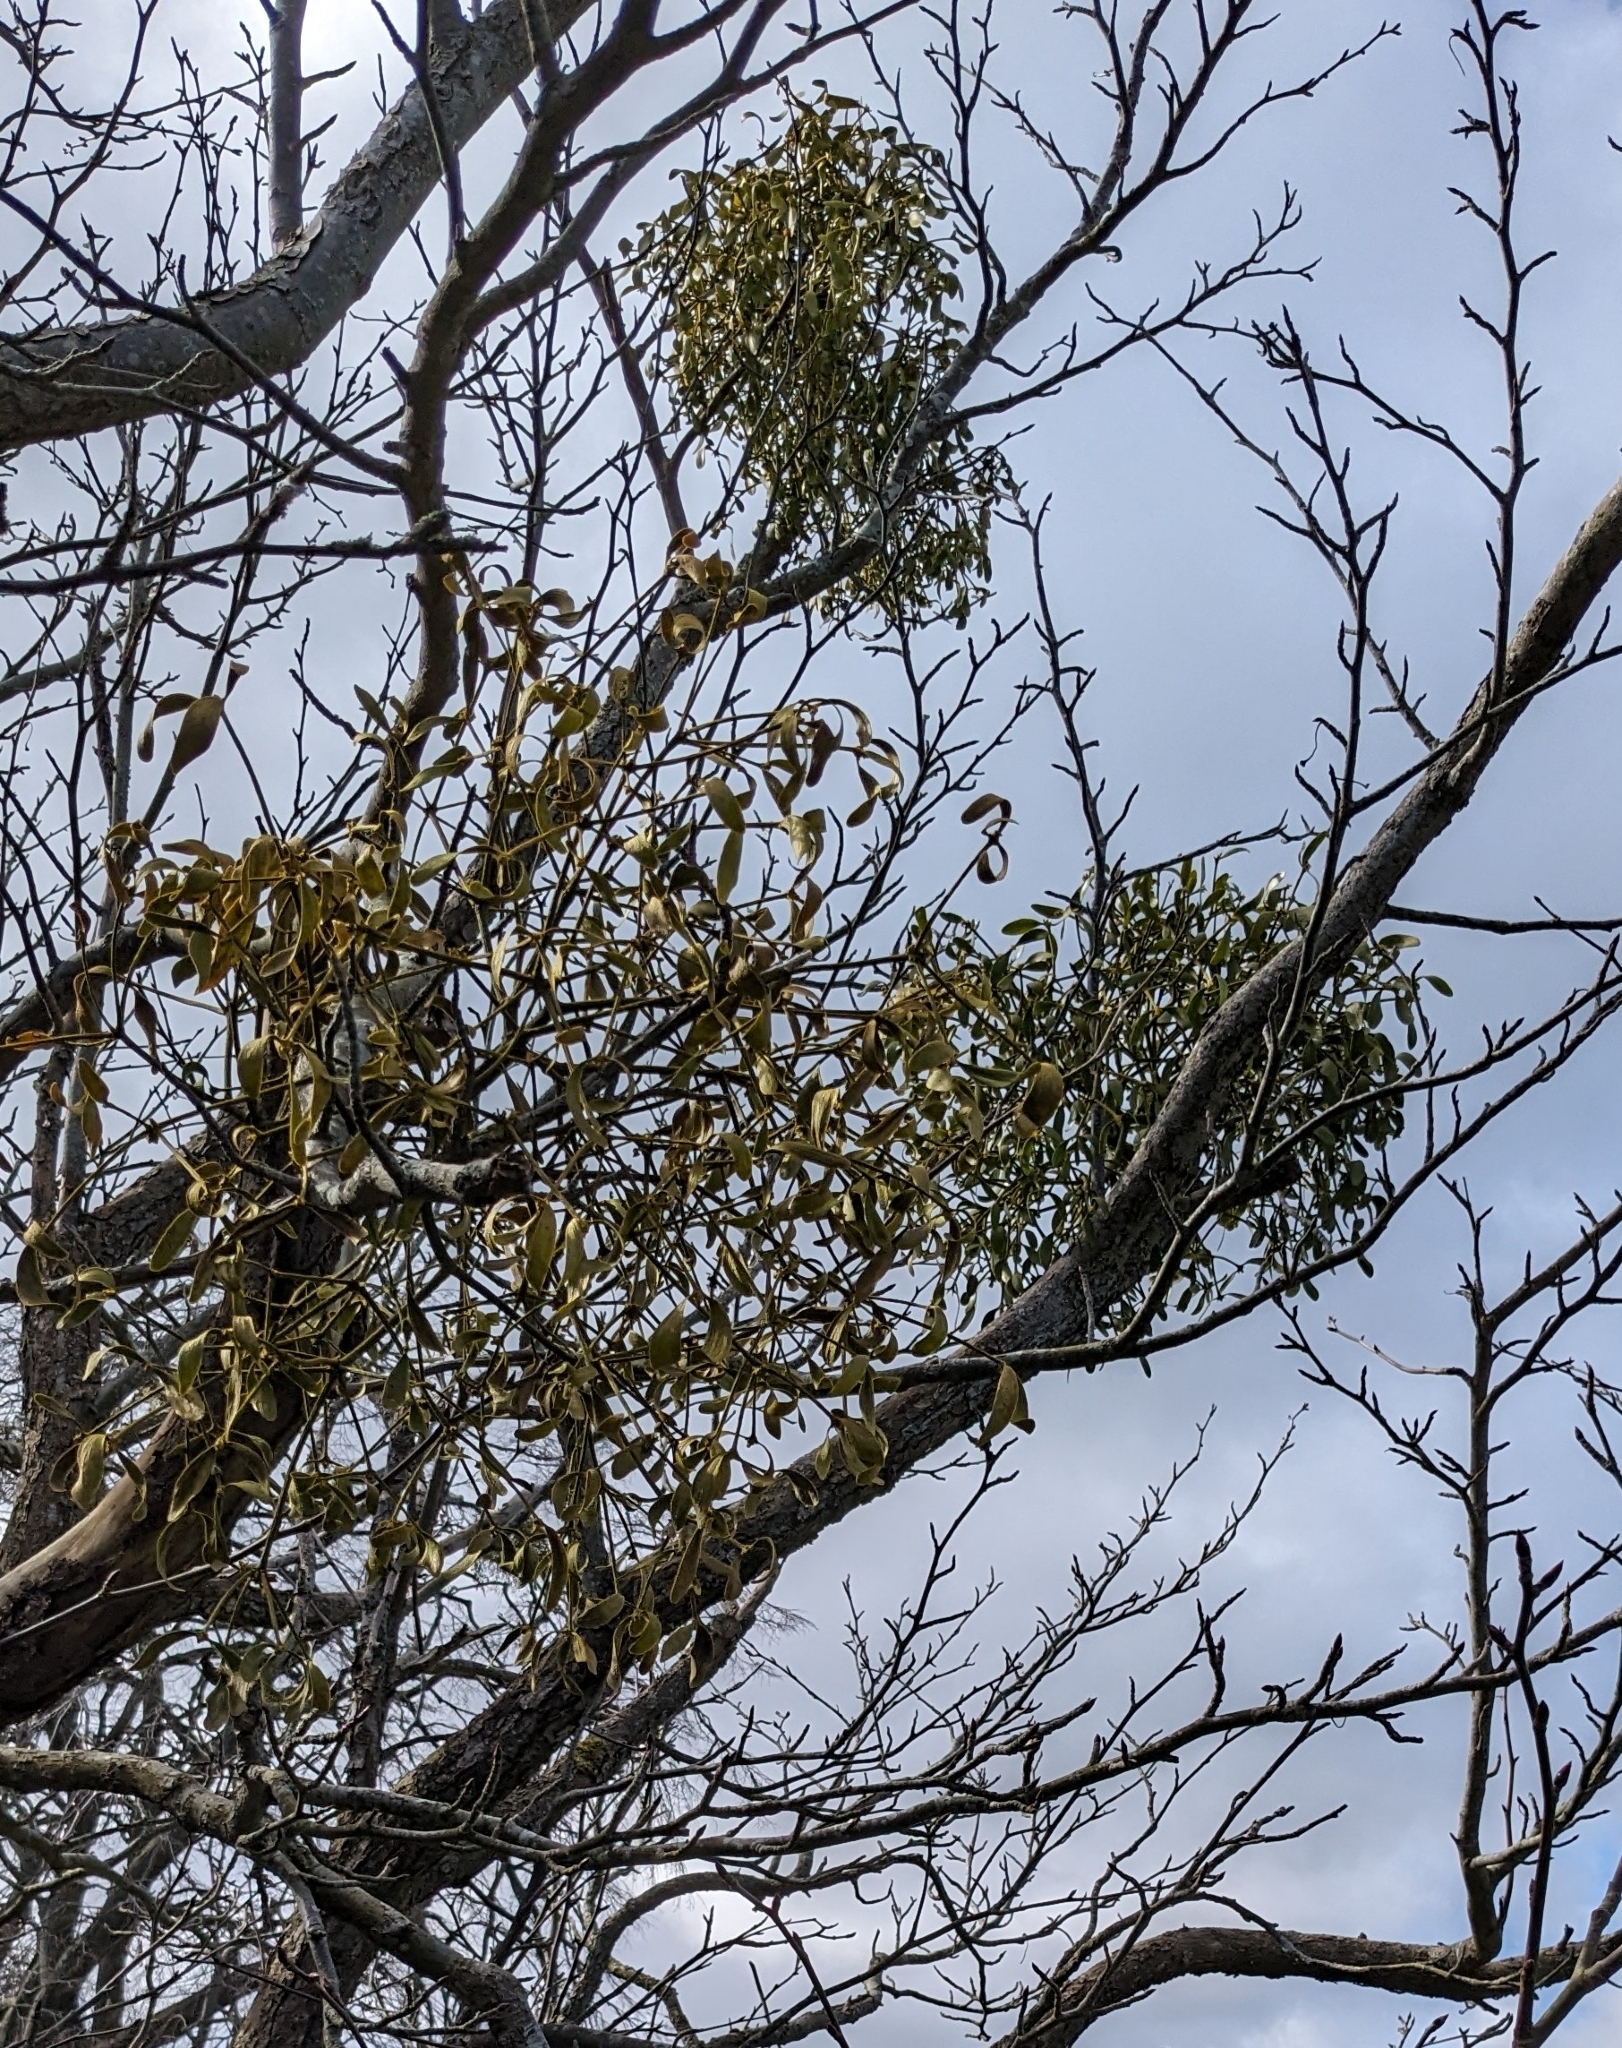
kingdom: Plantae
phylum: Tracheophyta
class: Magnoliopsida
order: Santalales
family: Viscaceae
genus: Viscum
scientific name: Viscum album
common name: Mistletoe
